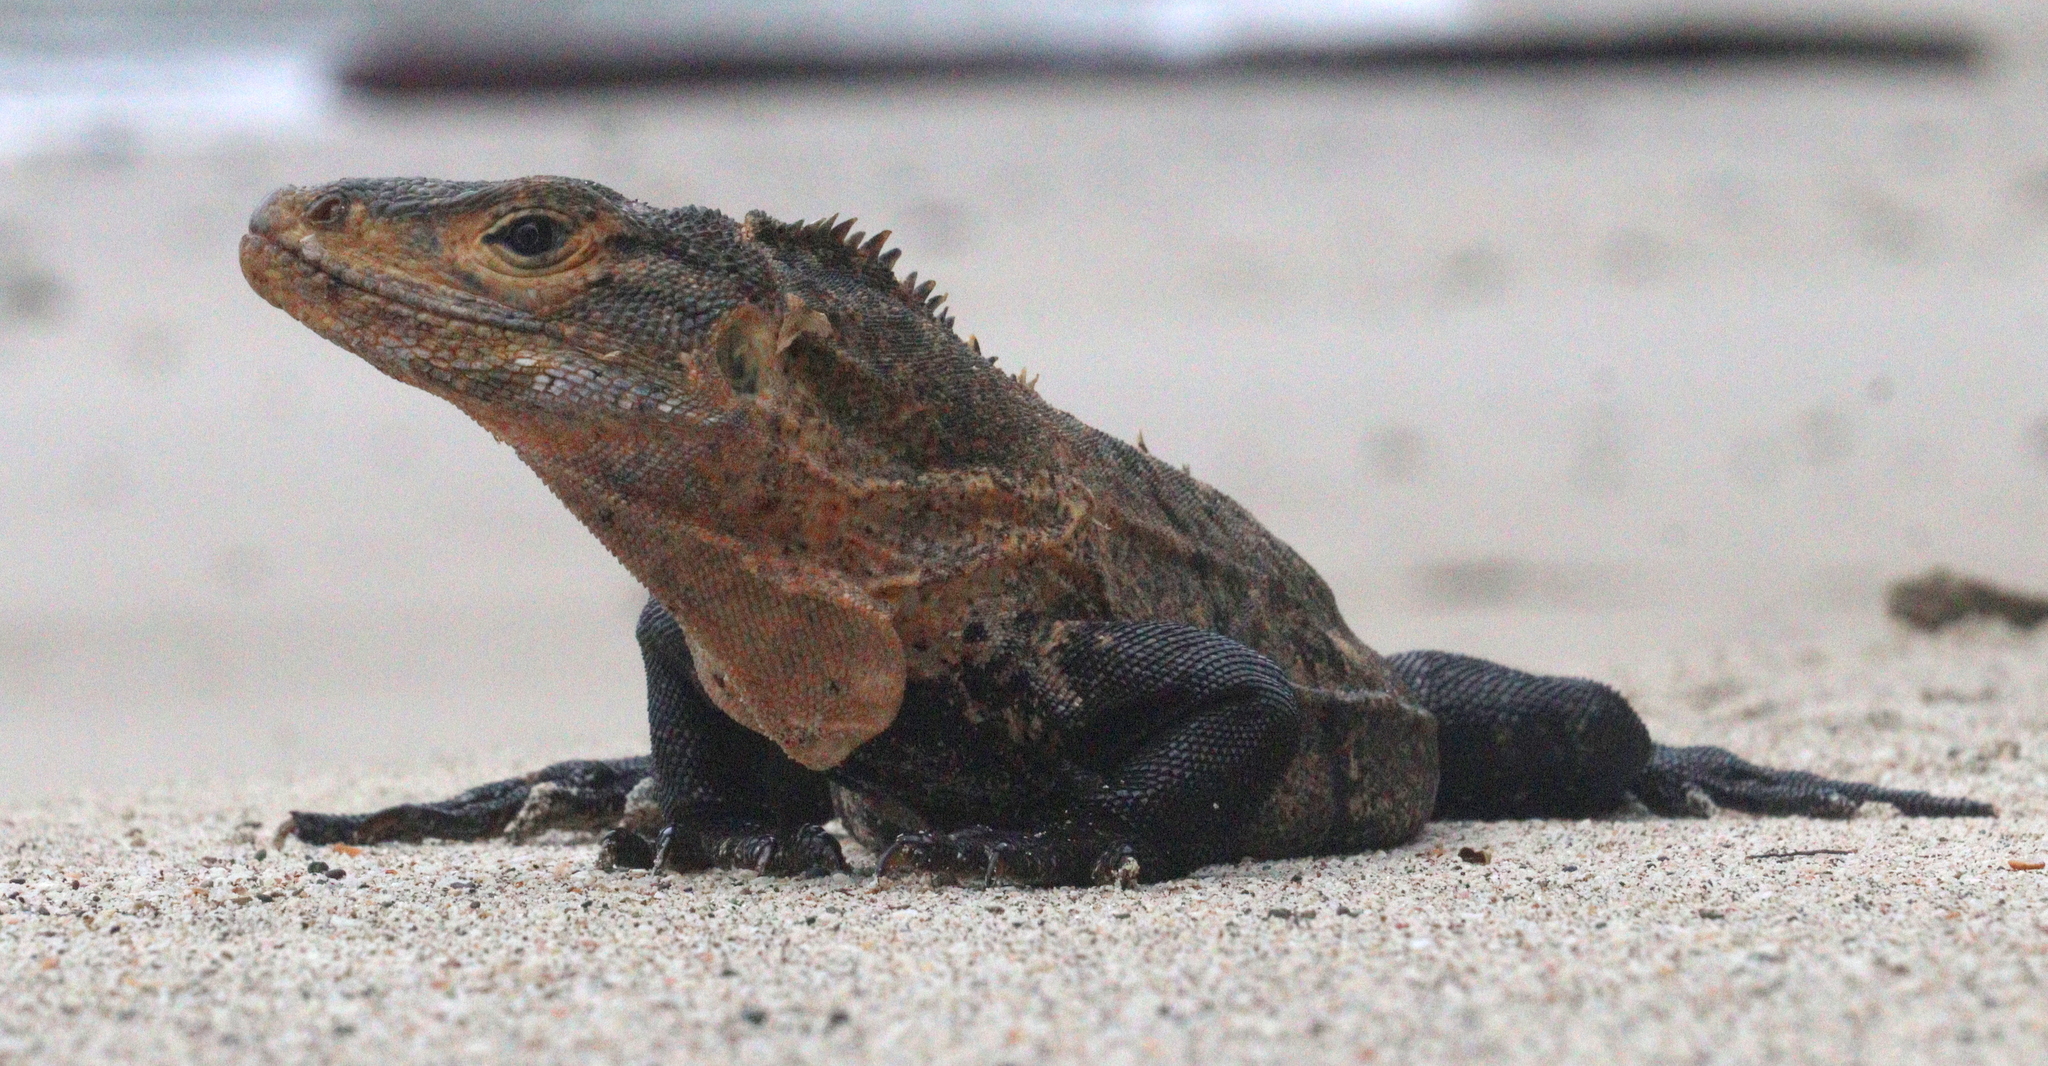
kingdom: Animalia
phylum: Chordata
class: Squamata
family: Iguanidae
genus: Ctenosaura
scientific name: Ctenosaura similis
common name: Black spiny-tailed iguana
